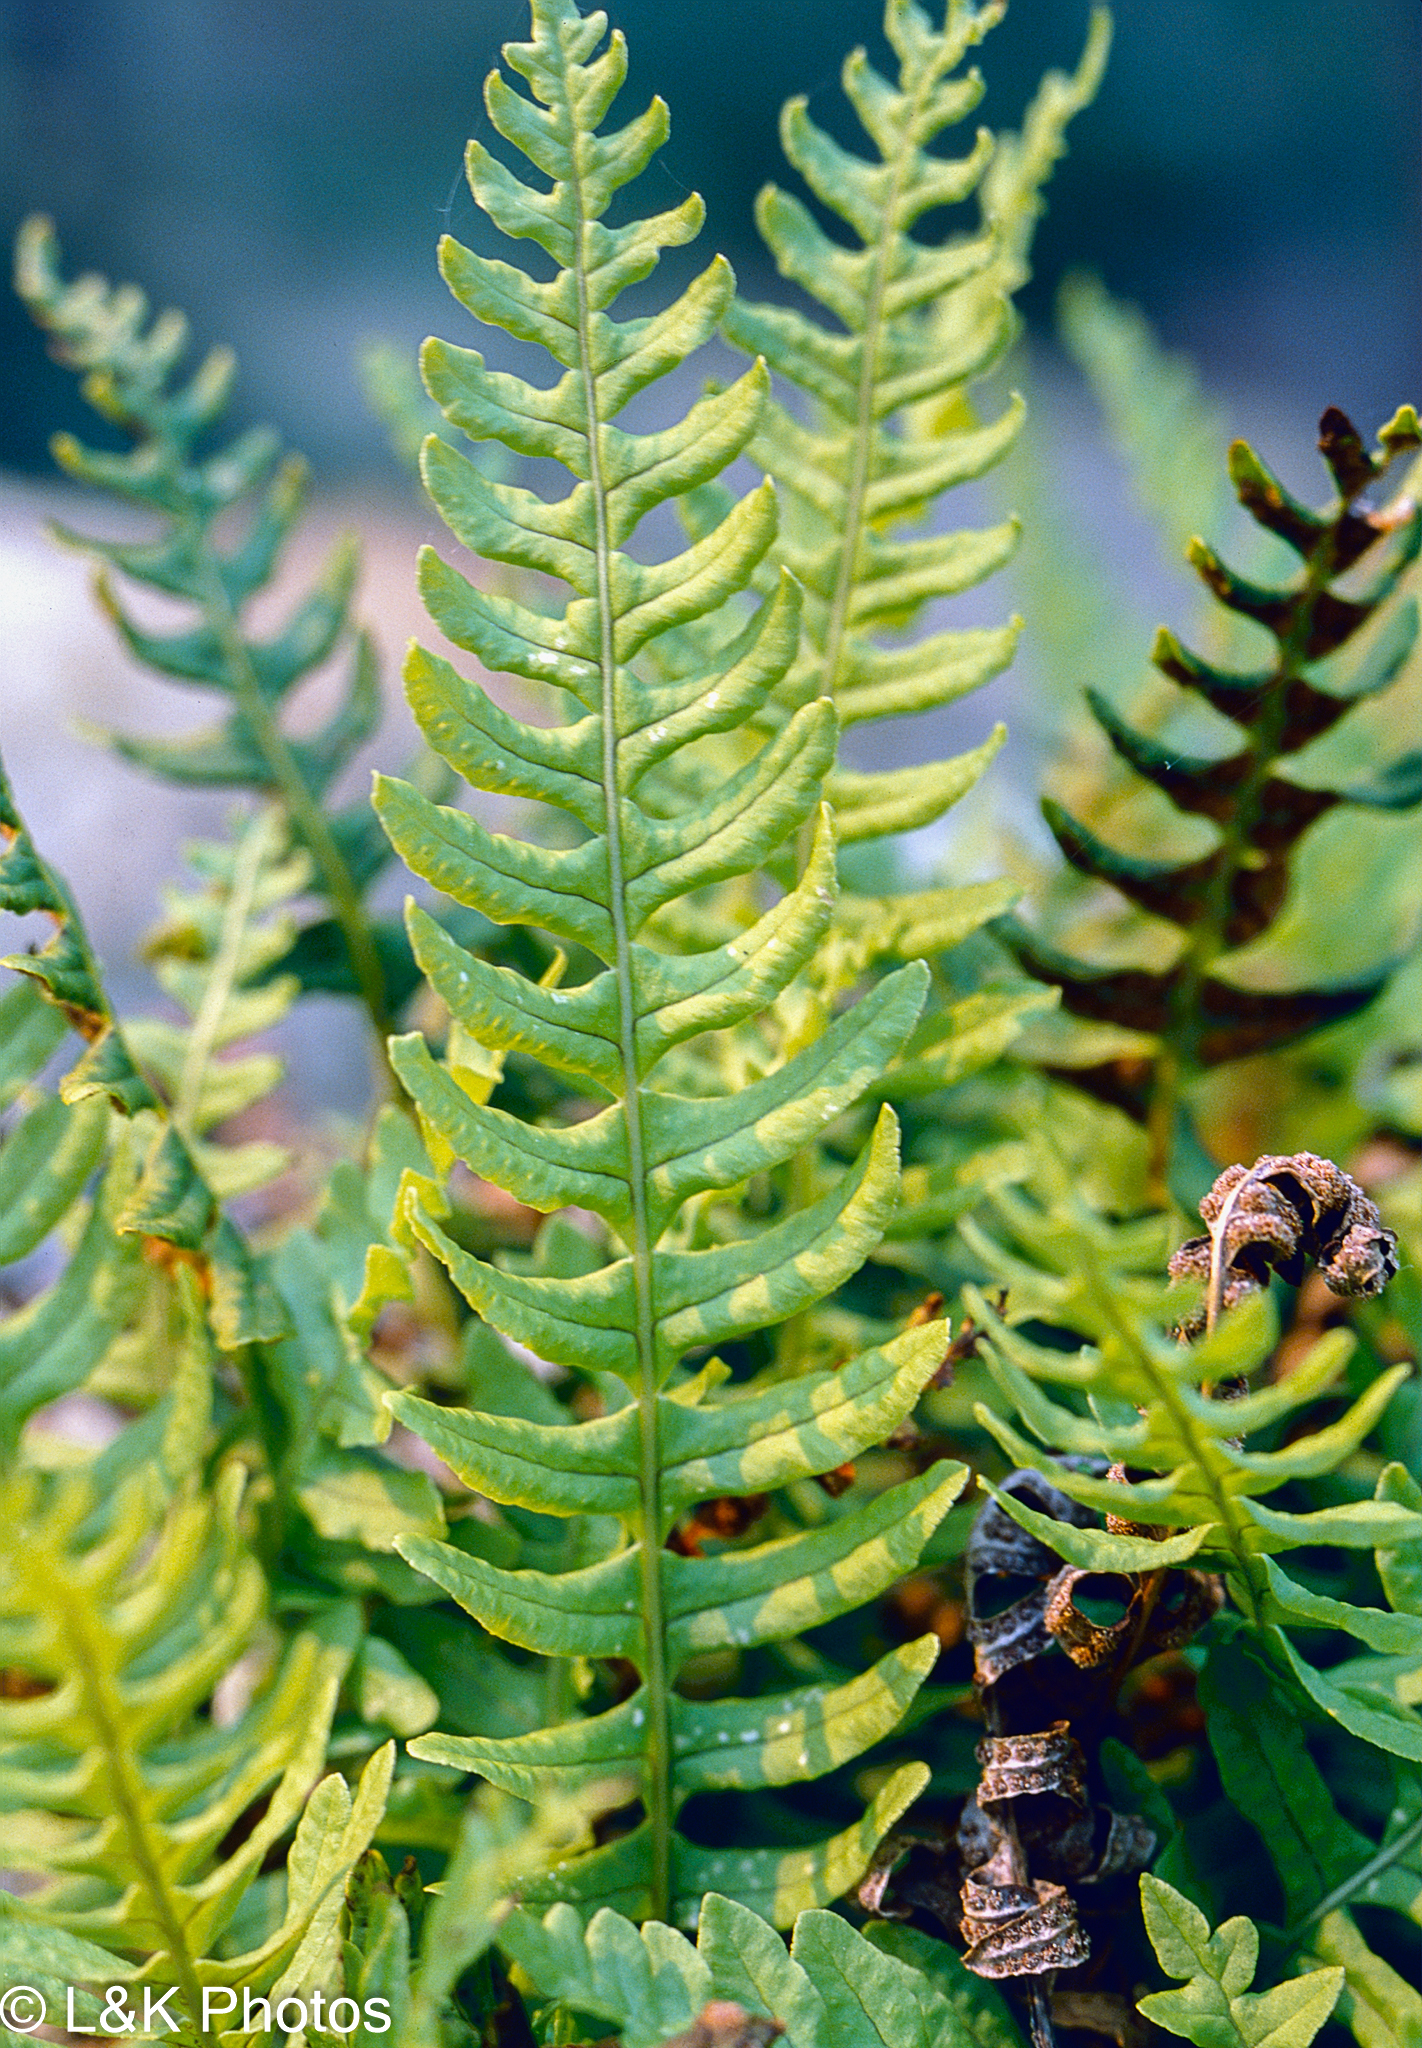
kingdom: Plantae
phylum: Tracheophyta
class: Polypodiopsida
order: Polypodiales
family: Polypodiaceae
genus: Polypodium
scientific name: Polypodium sibiricum
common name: Siberian polypody
